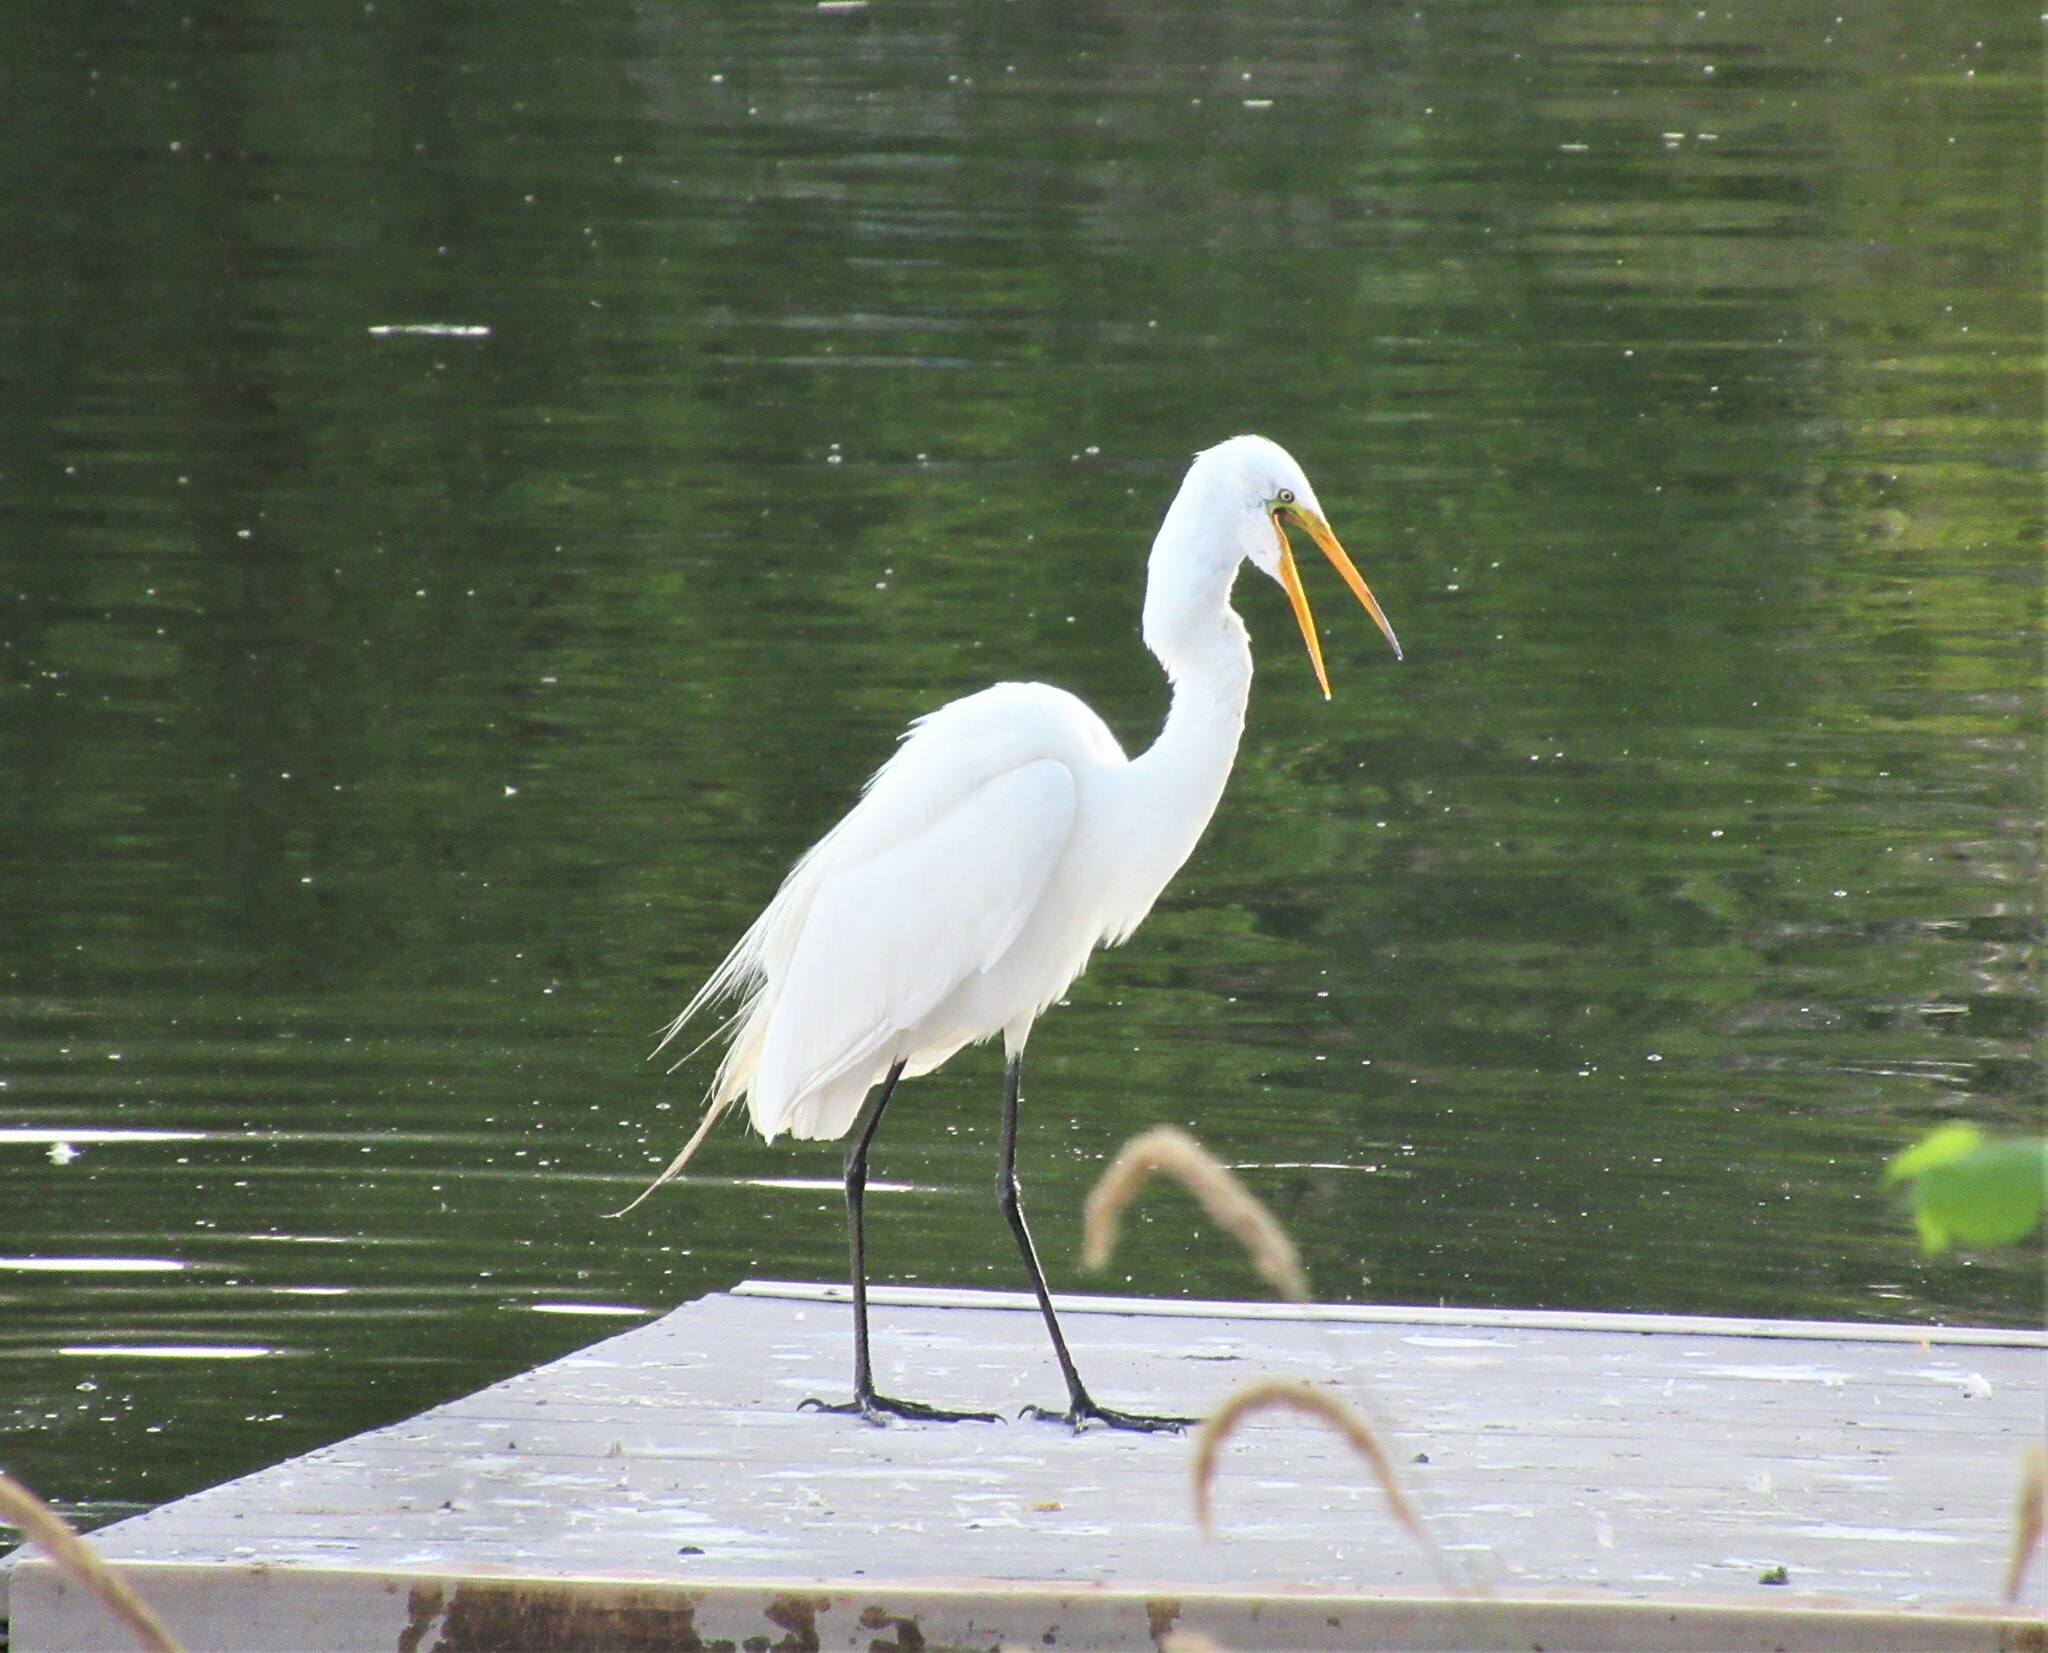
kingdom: Animalia
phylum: Chordata
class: Aves
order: Pelecaniformes
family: Ardeidae
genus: Ardea
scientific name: Ardea alba
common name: Great egret
